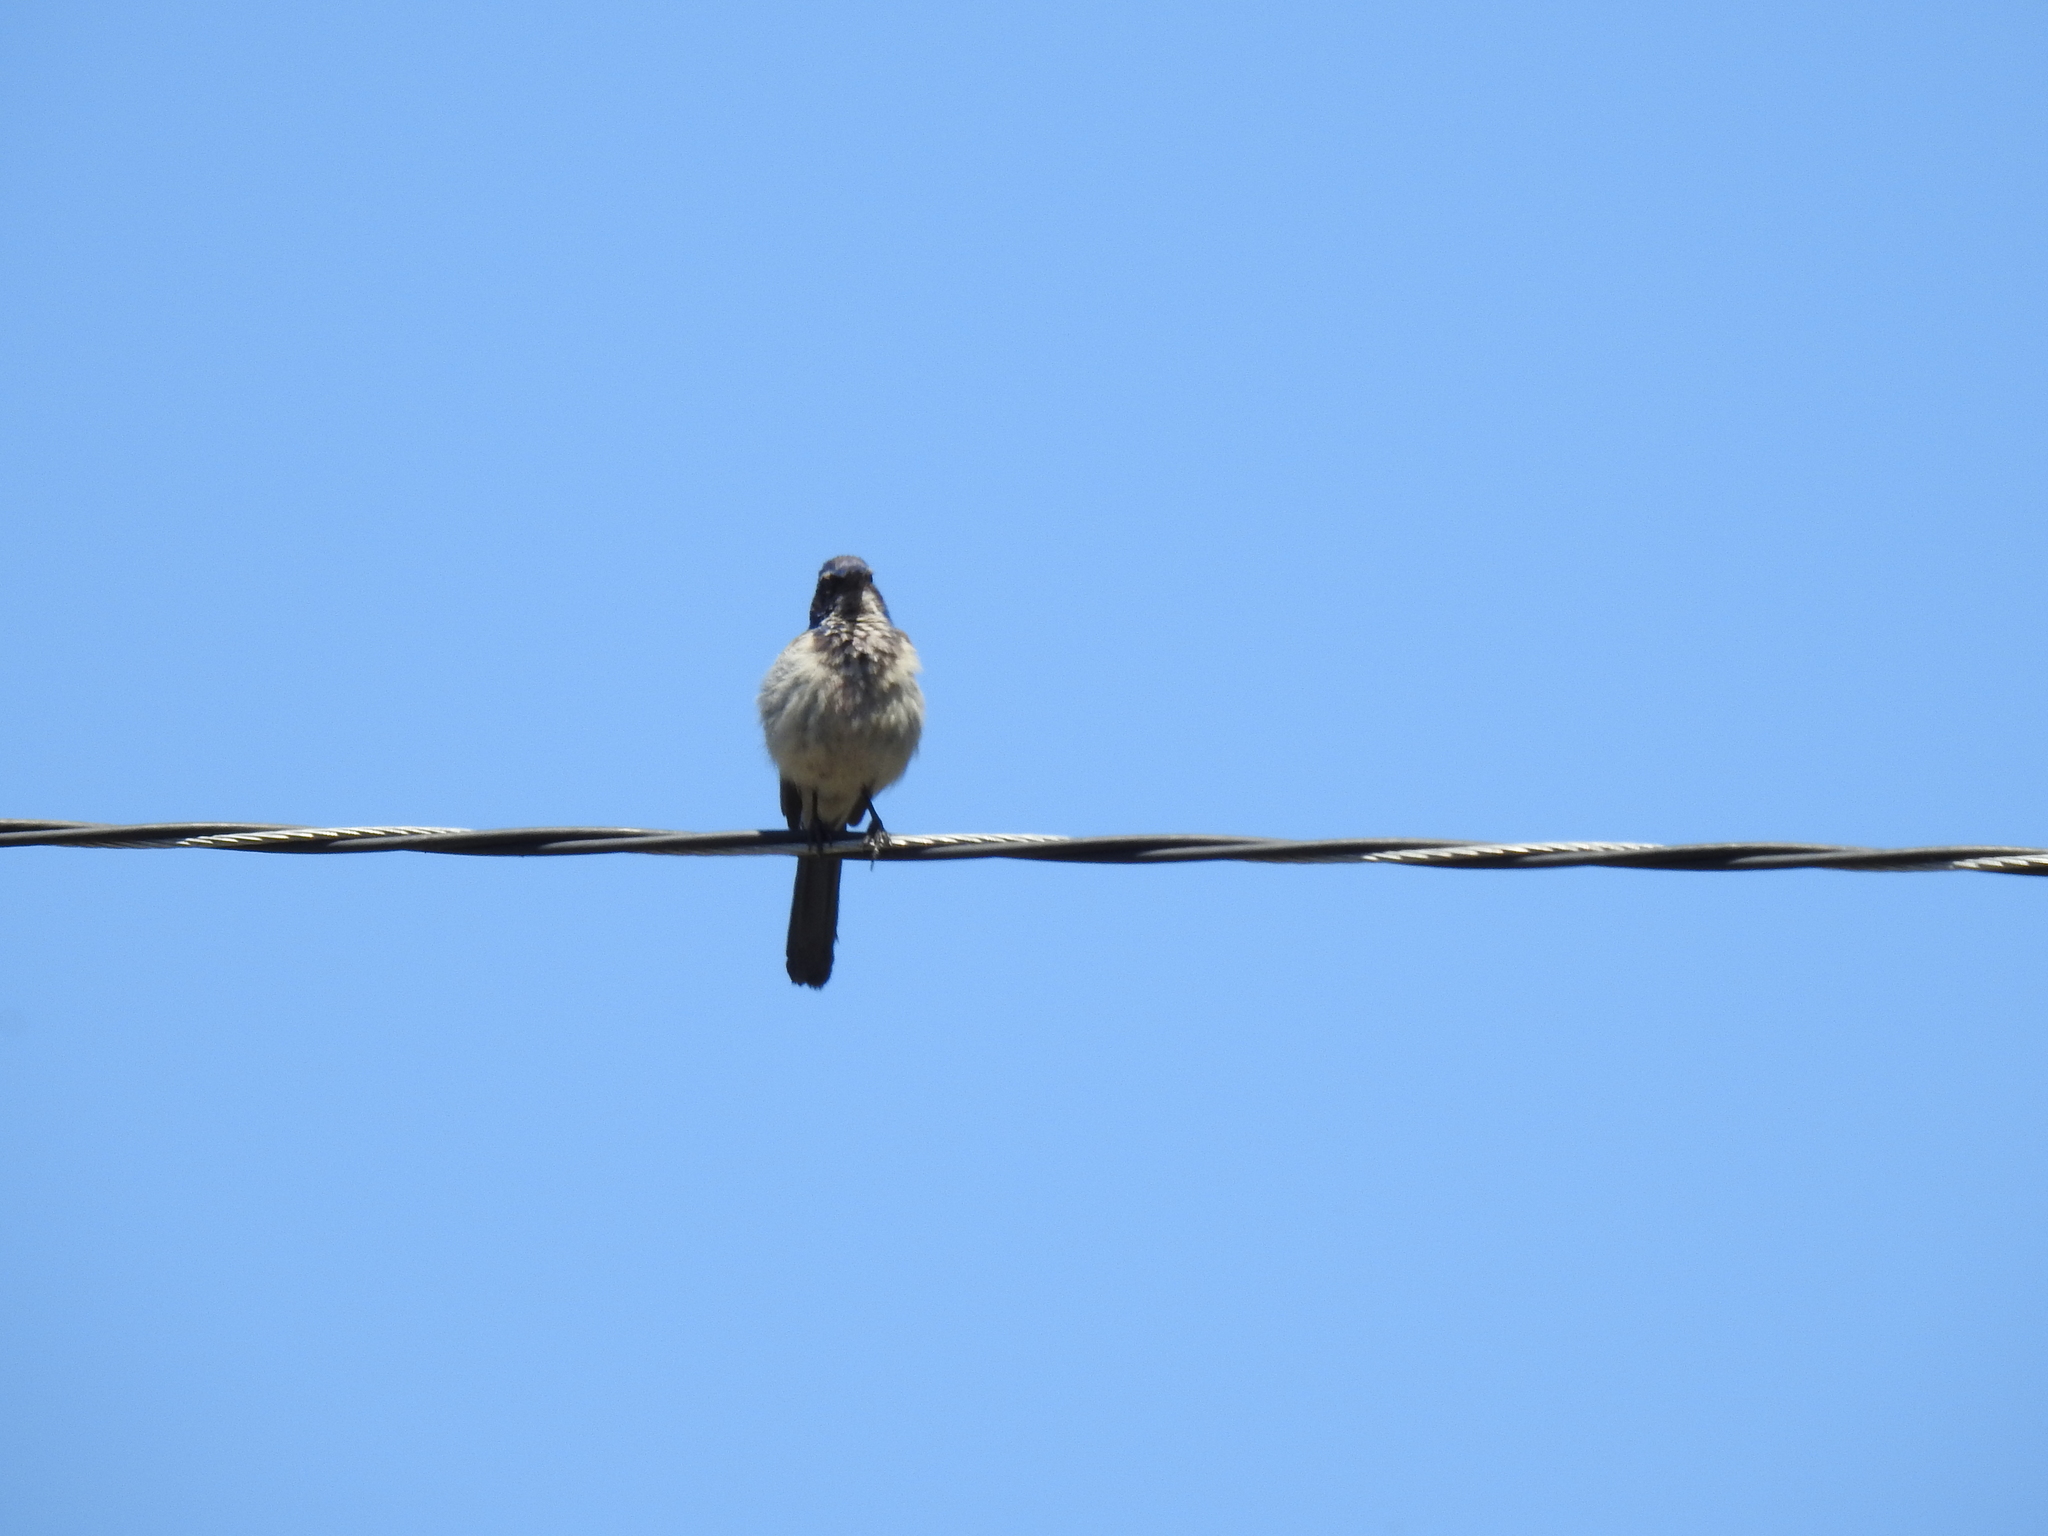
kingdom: Animalia
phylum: Chordata
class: Aves
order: Passeriformes
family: Corvidae
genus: Aphelocoma
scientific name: Aphelocoma californica
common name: California scrub-jay
